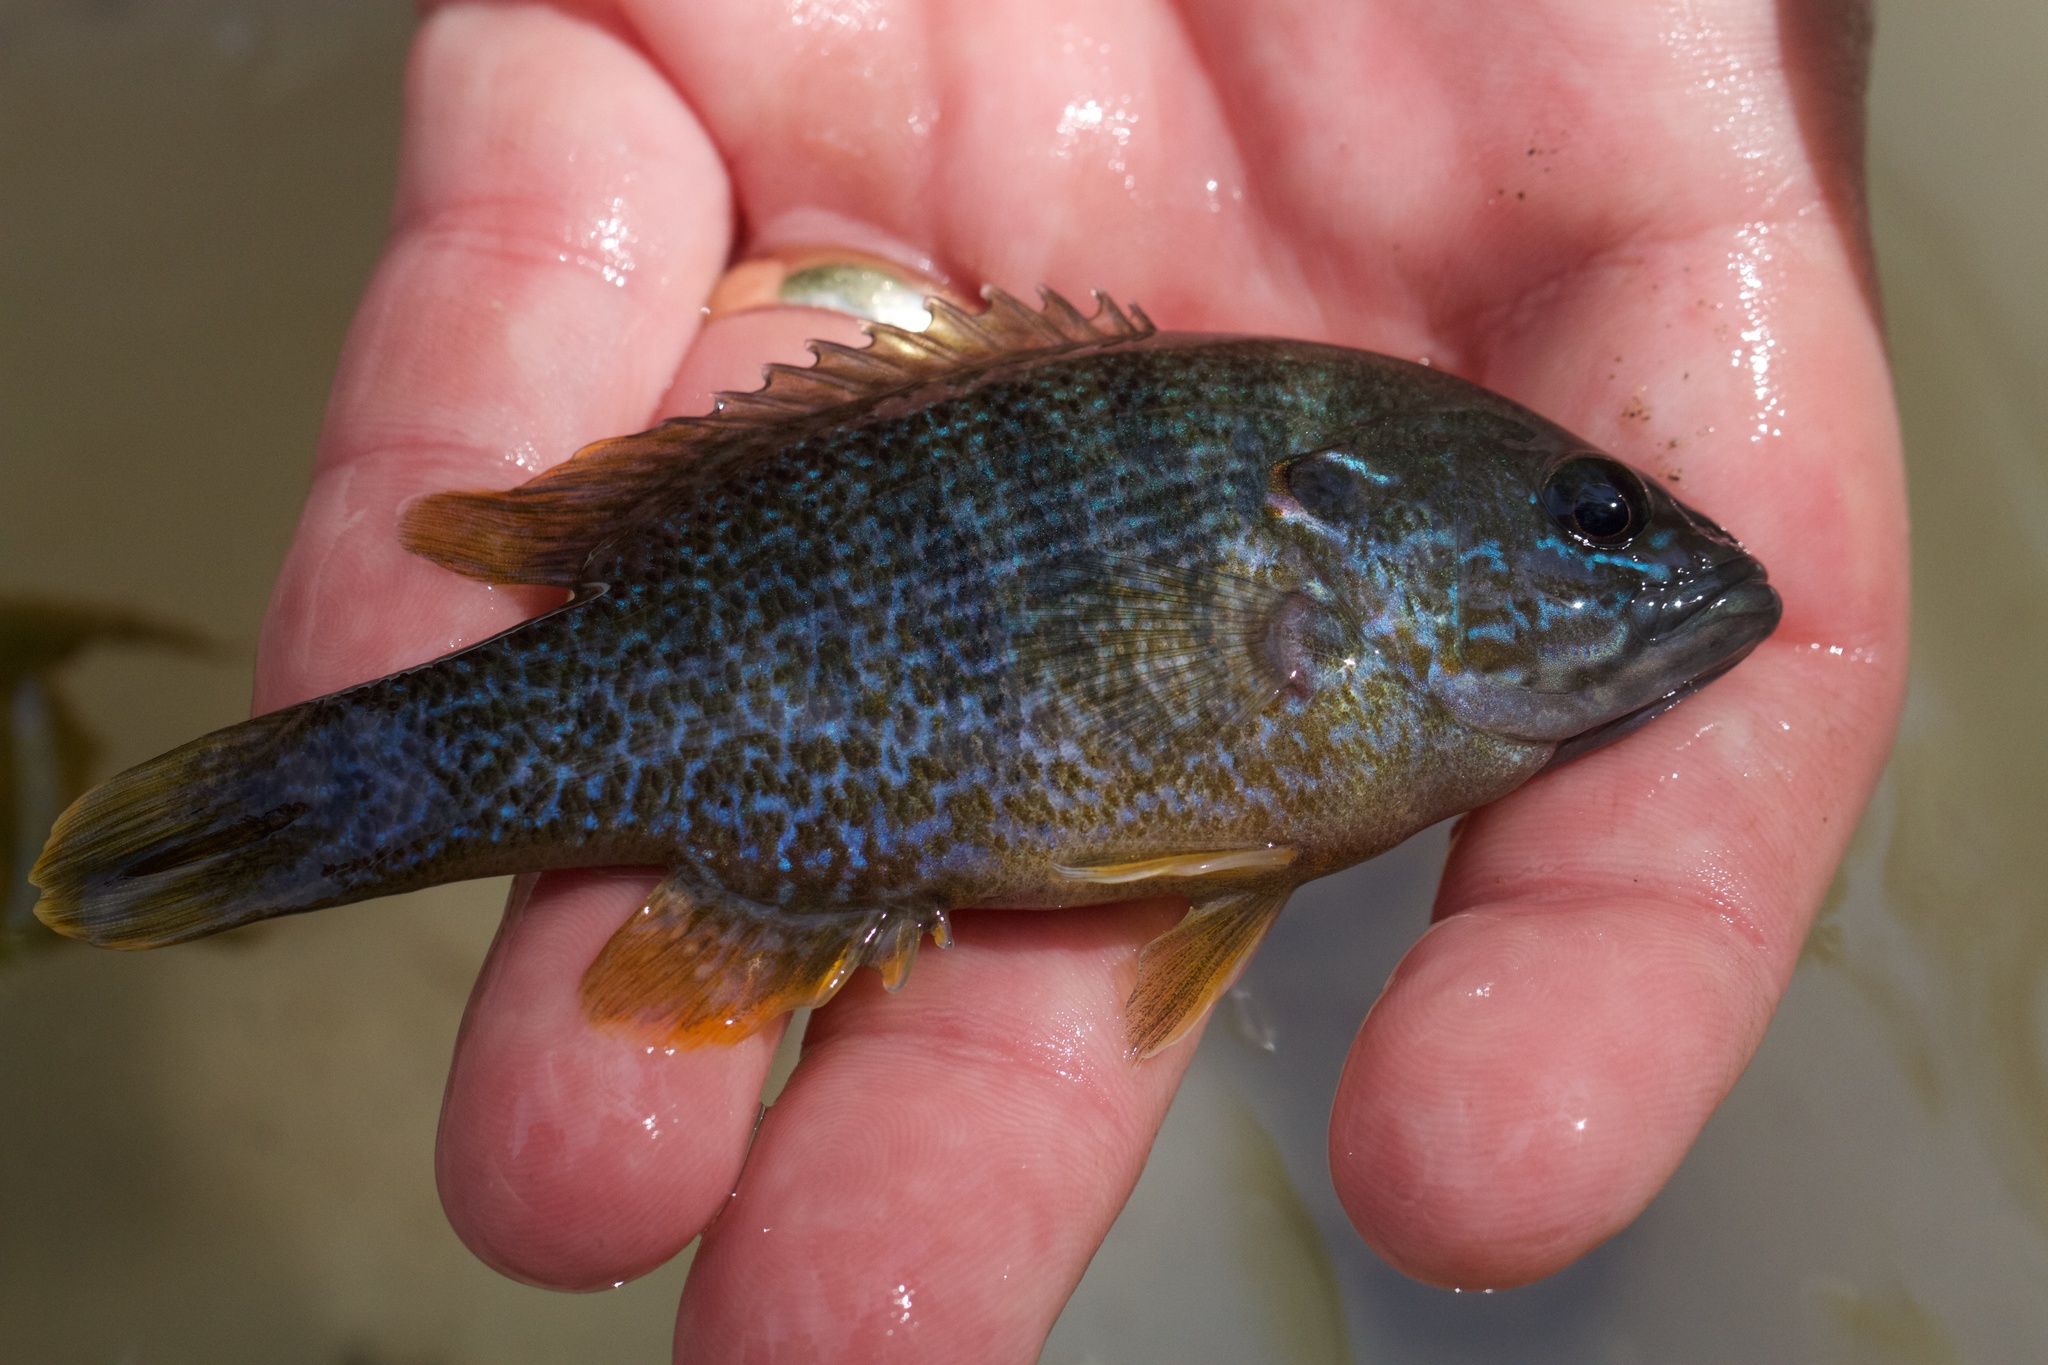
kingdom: Animalia
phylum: Chordata
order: Perciformes
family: Centrarchidae
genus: Lepomis
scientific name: Lepomis cyanellus
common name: Green sunfish
